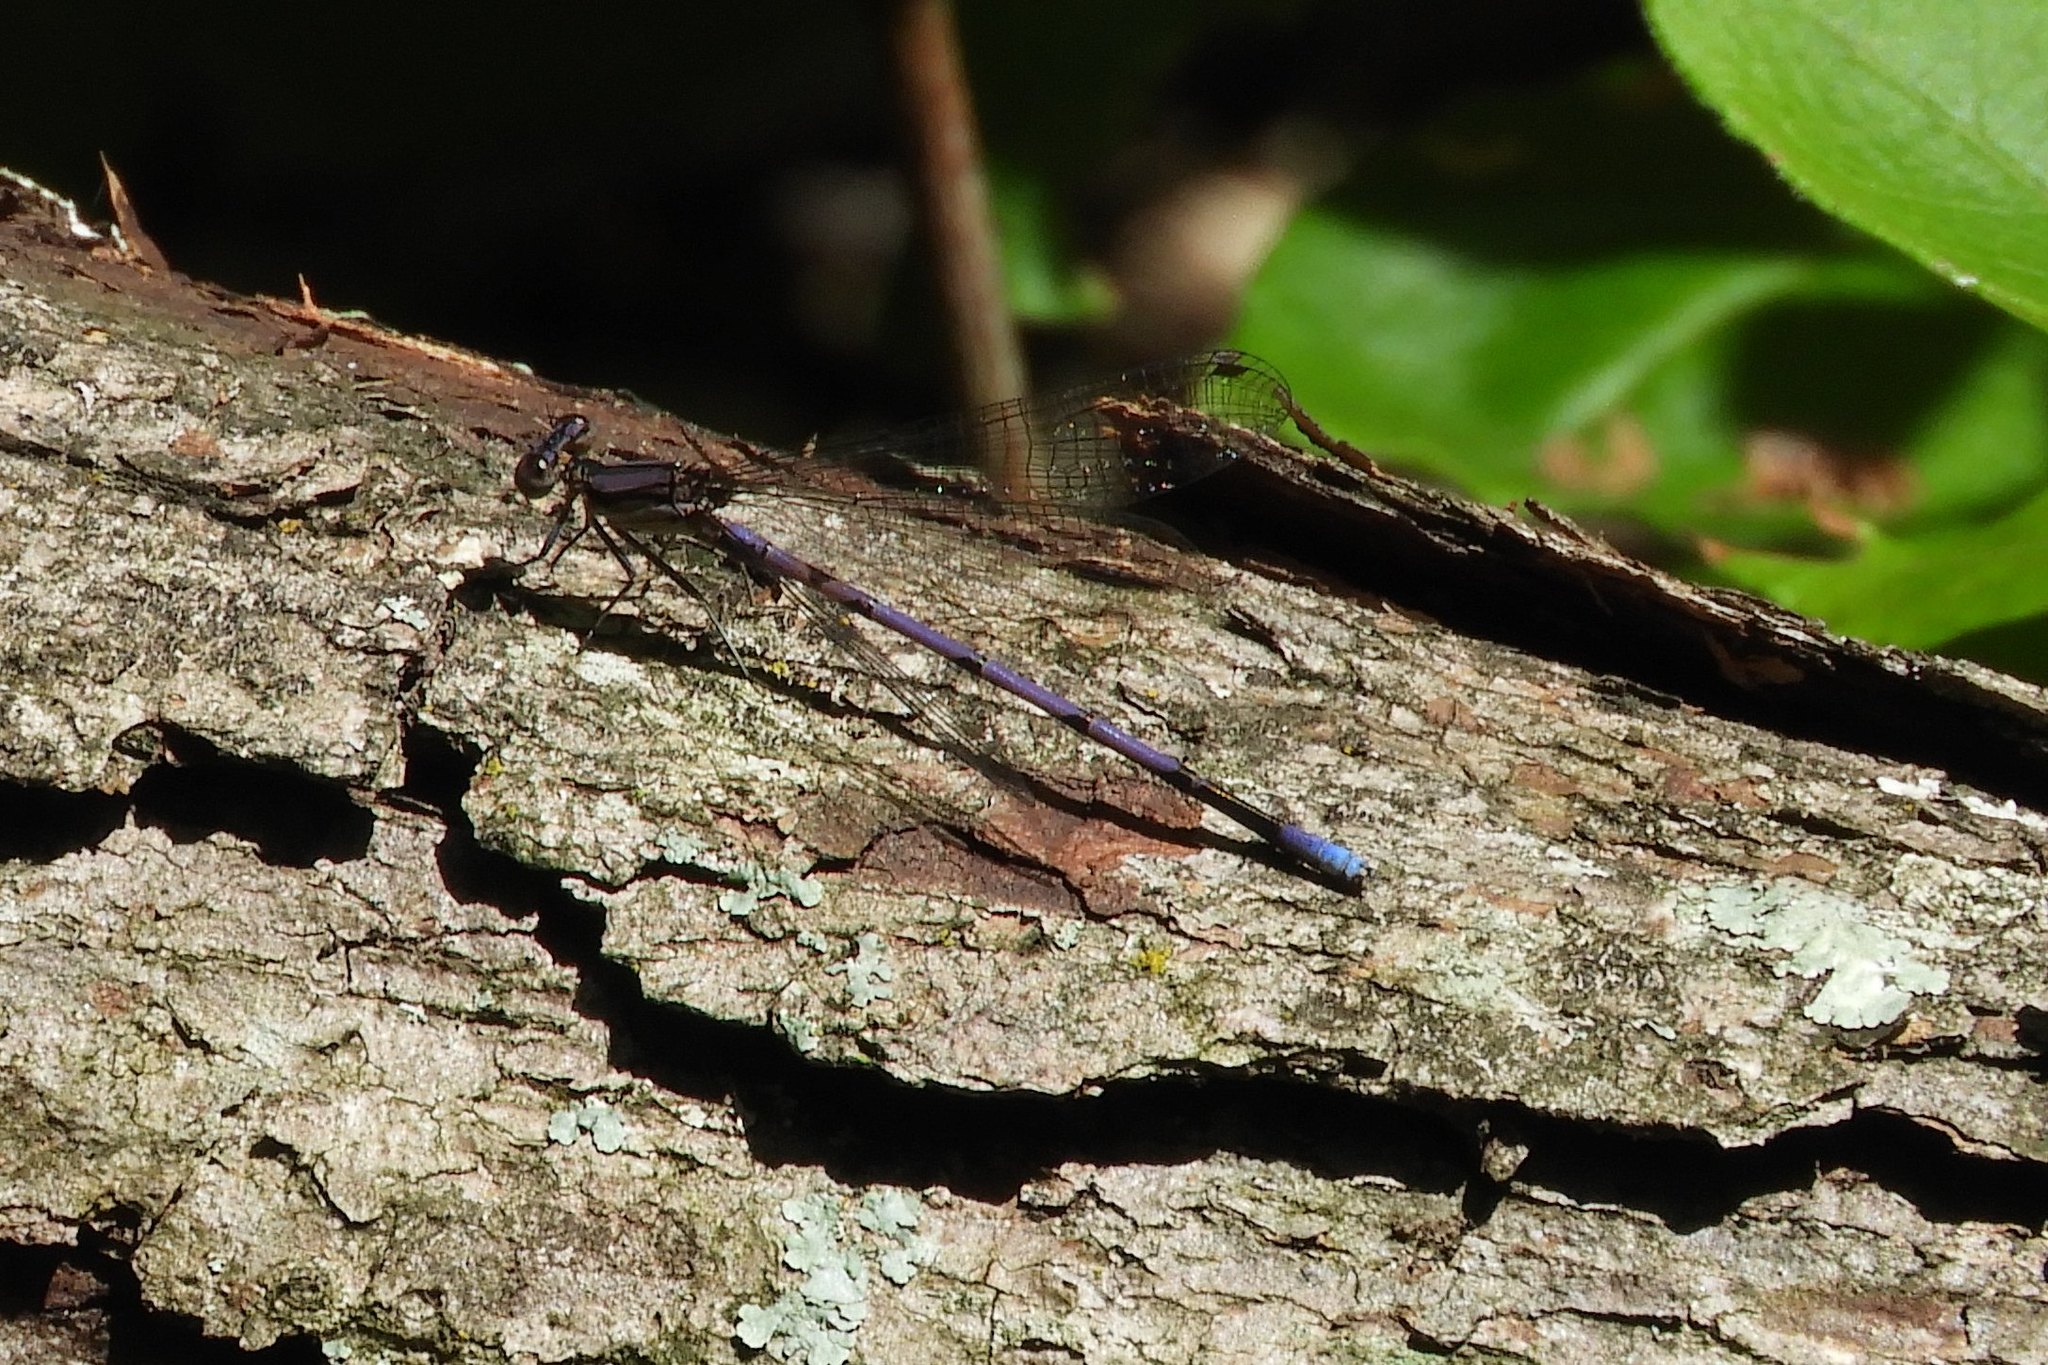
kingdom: Animalia
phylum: Arthropoda
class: Insecta
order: Odonata
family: Coenagrionidae
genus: Argia
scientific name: Argia fumipennis
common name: Variable dancer
